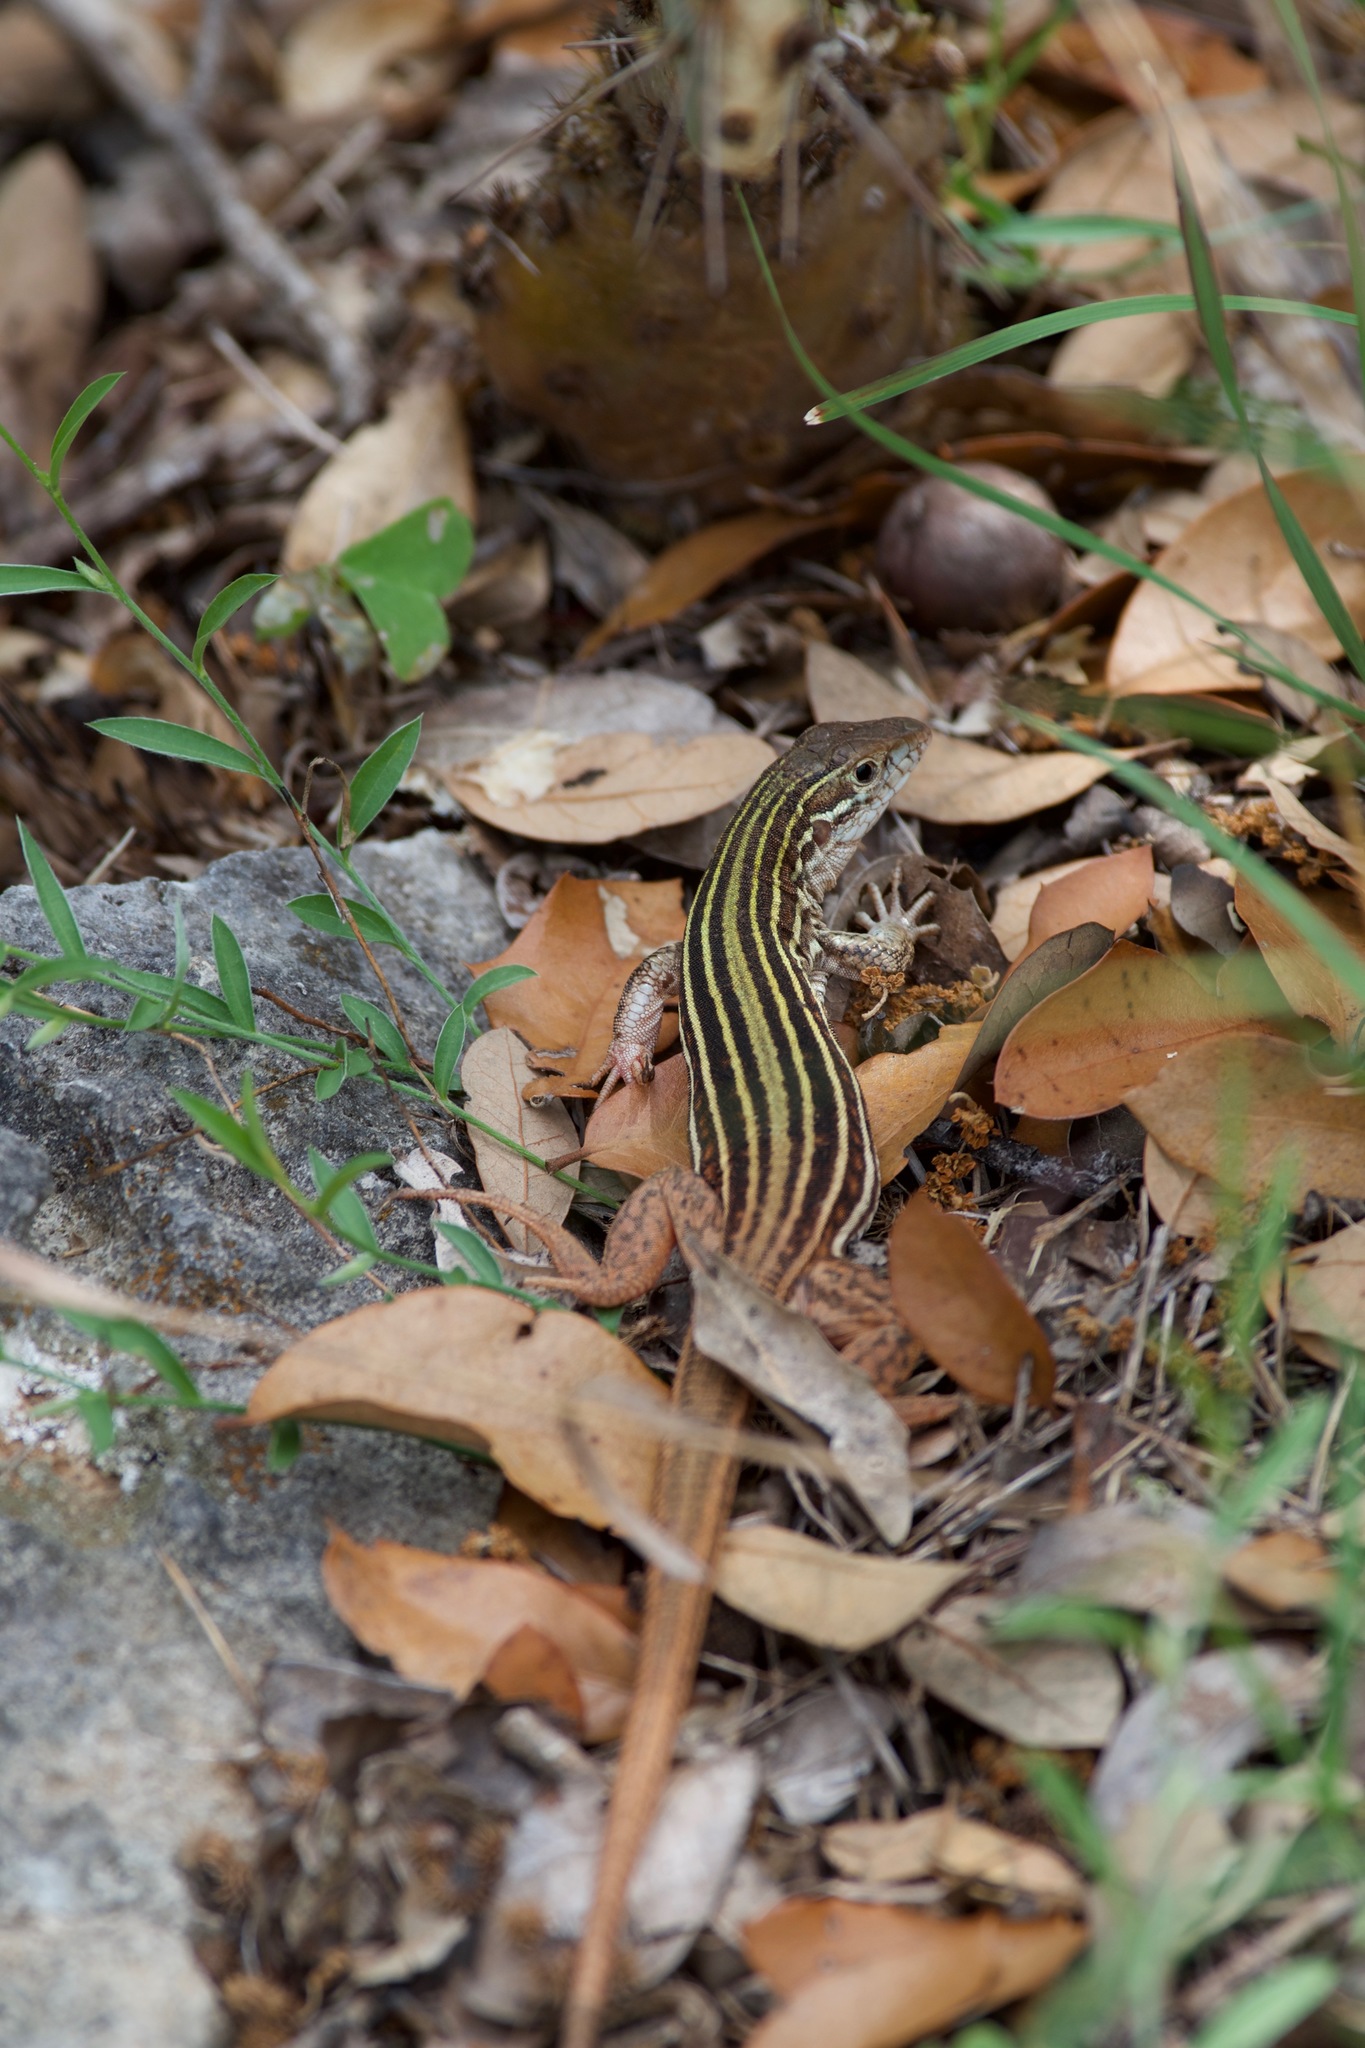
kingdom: Animalia
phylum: Chordata
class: Squamata
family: Teiidae
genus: Aspidoscelis
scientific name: Aspidoscelis gularis
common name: Eastern spotted whiptail
